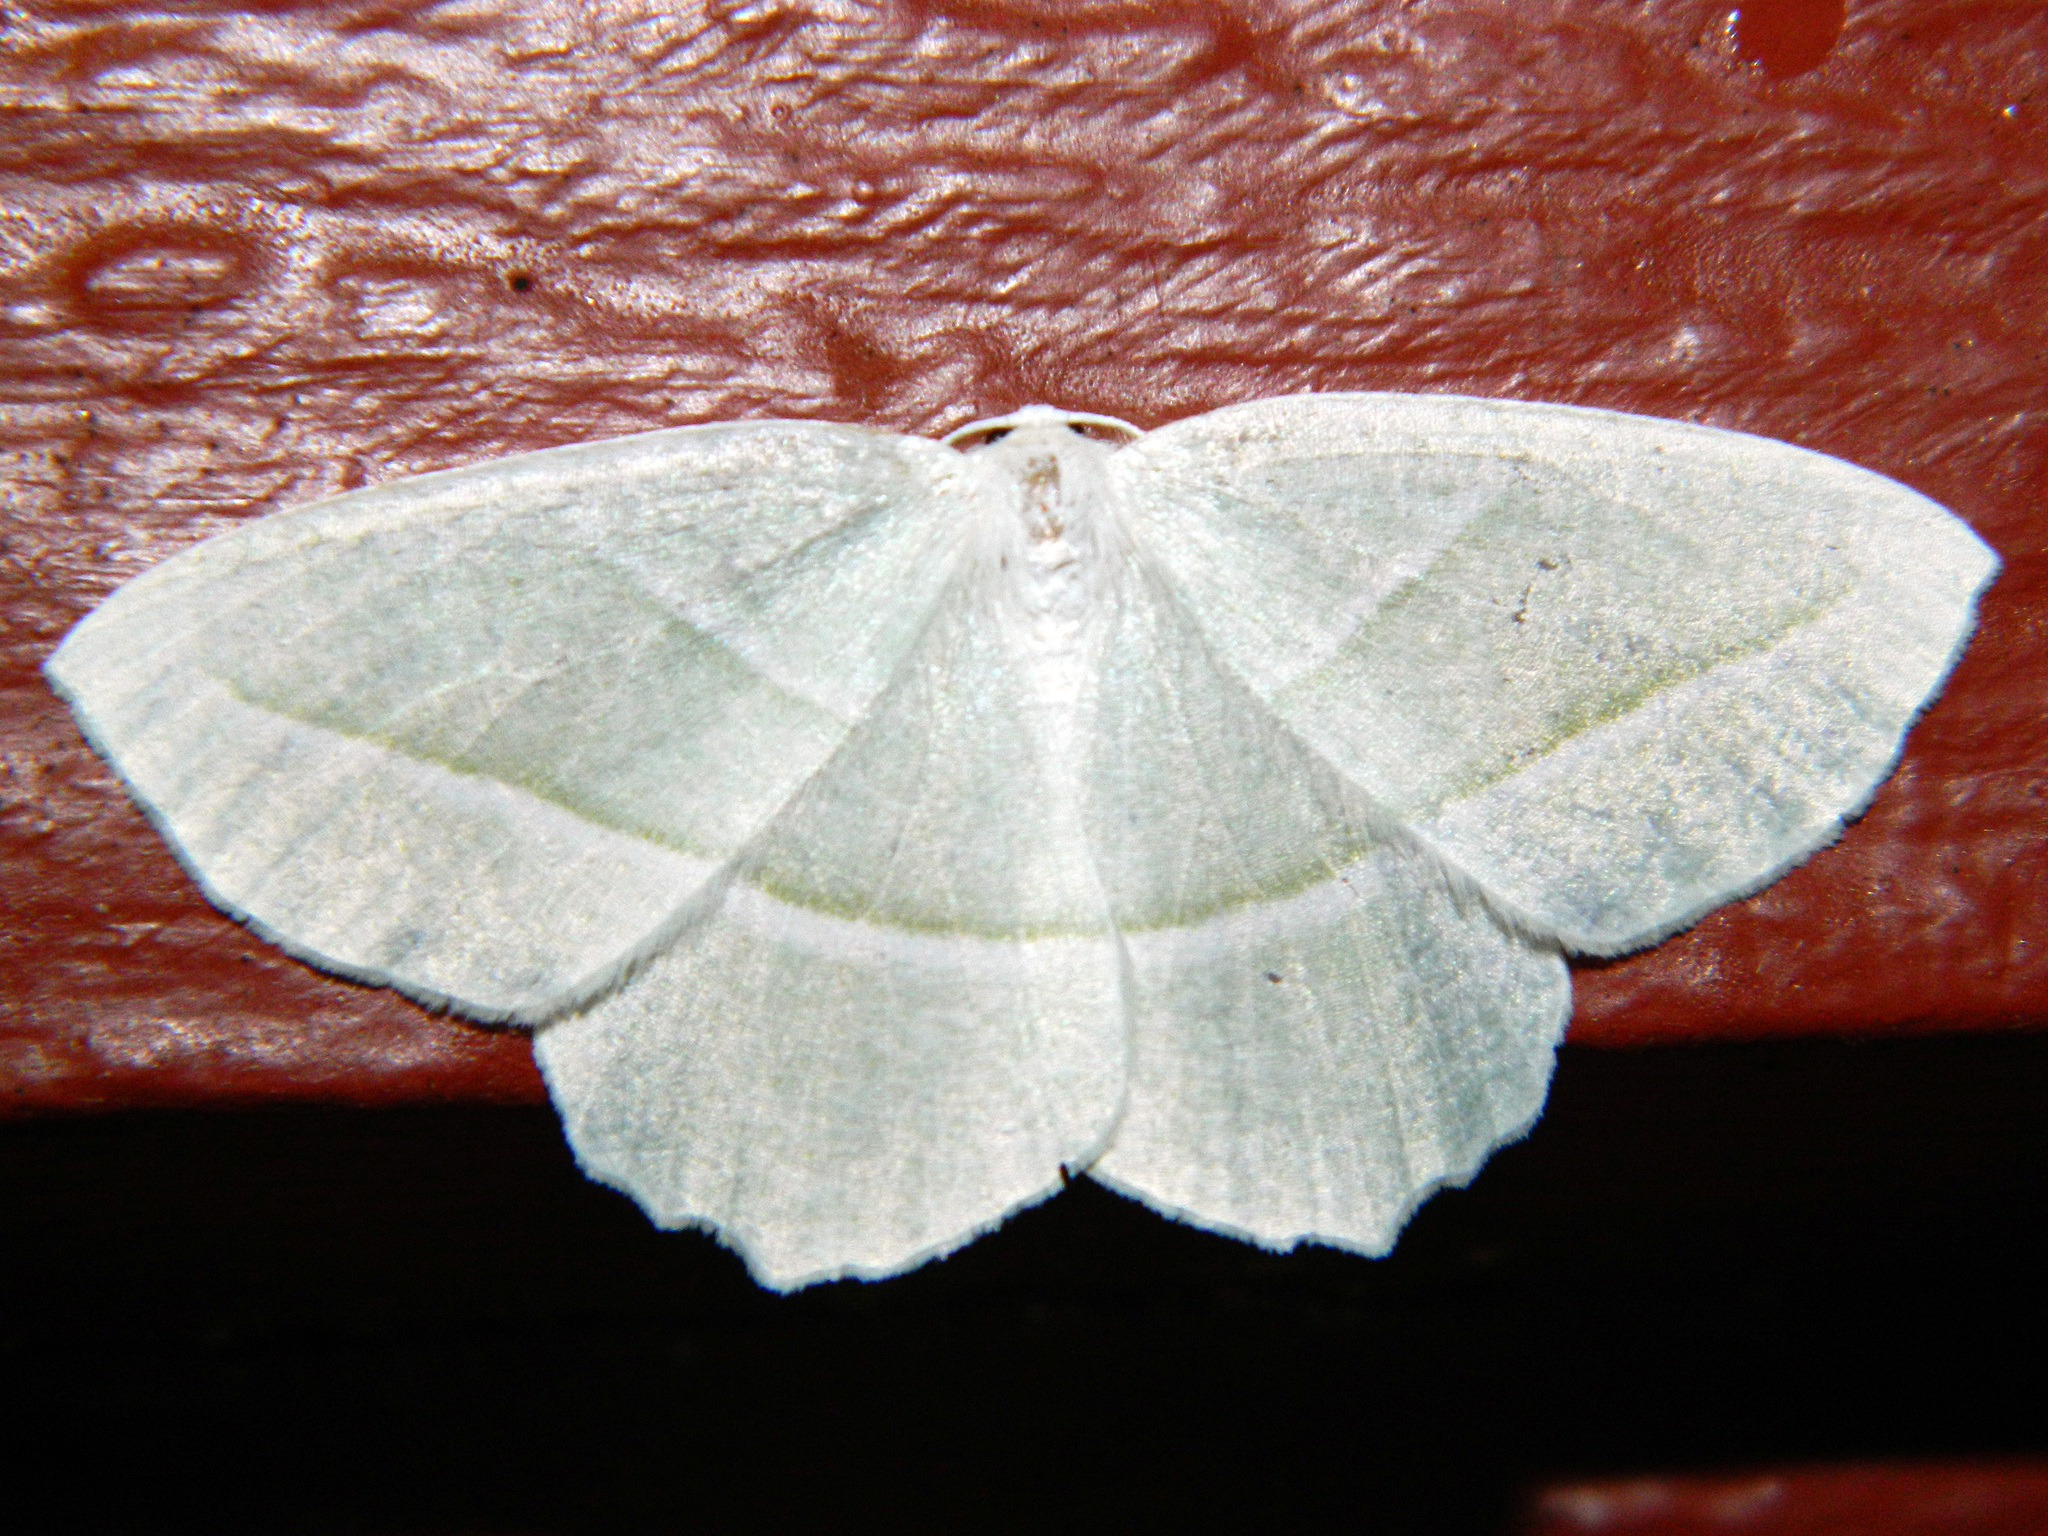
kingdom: Animalia
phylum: Arthropoda
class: Insecta
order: Lepidoptera
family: Geometridae
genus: Campaea
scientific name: Campaea perlata
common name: Fringed looper
